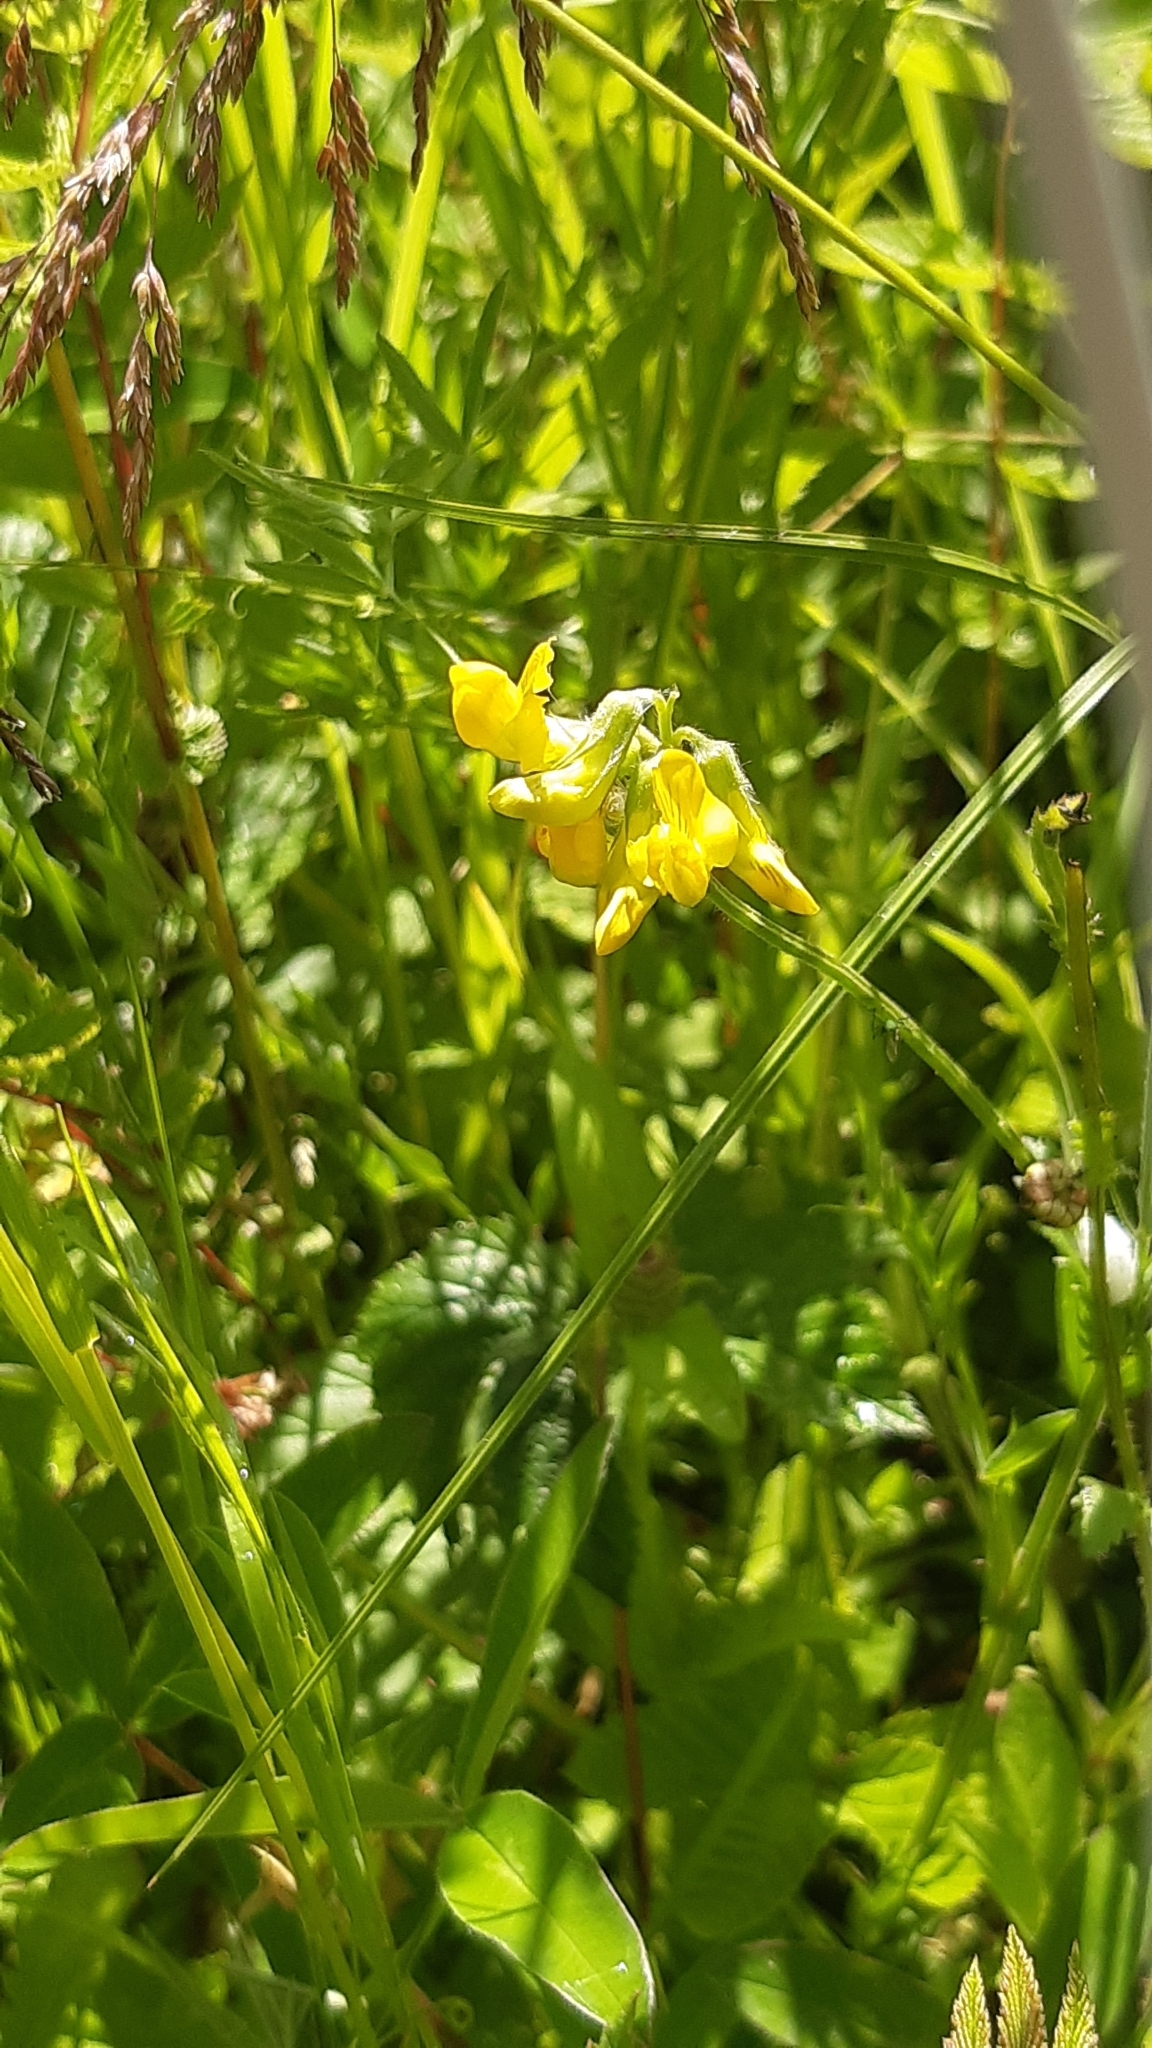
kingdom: Plantae
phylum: Tracheophyta
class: Magnoliopsida
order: Fabales
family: Fabaceae
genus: Lathyrus
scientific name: Lathyrus pratensis
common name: Meadow vetchling
